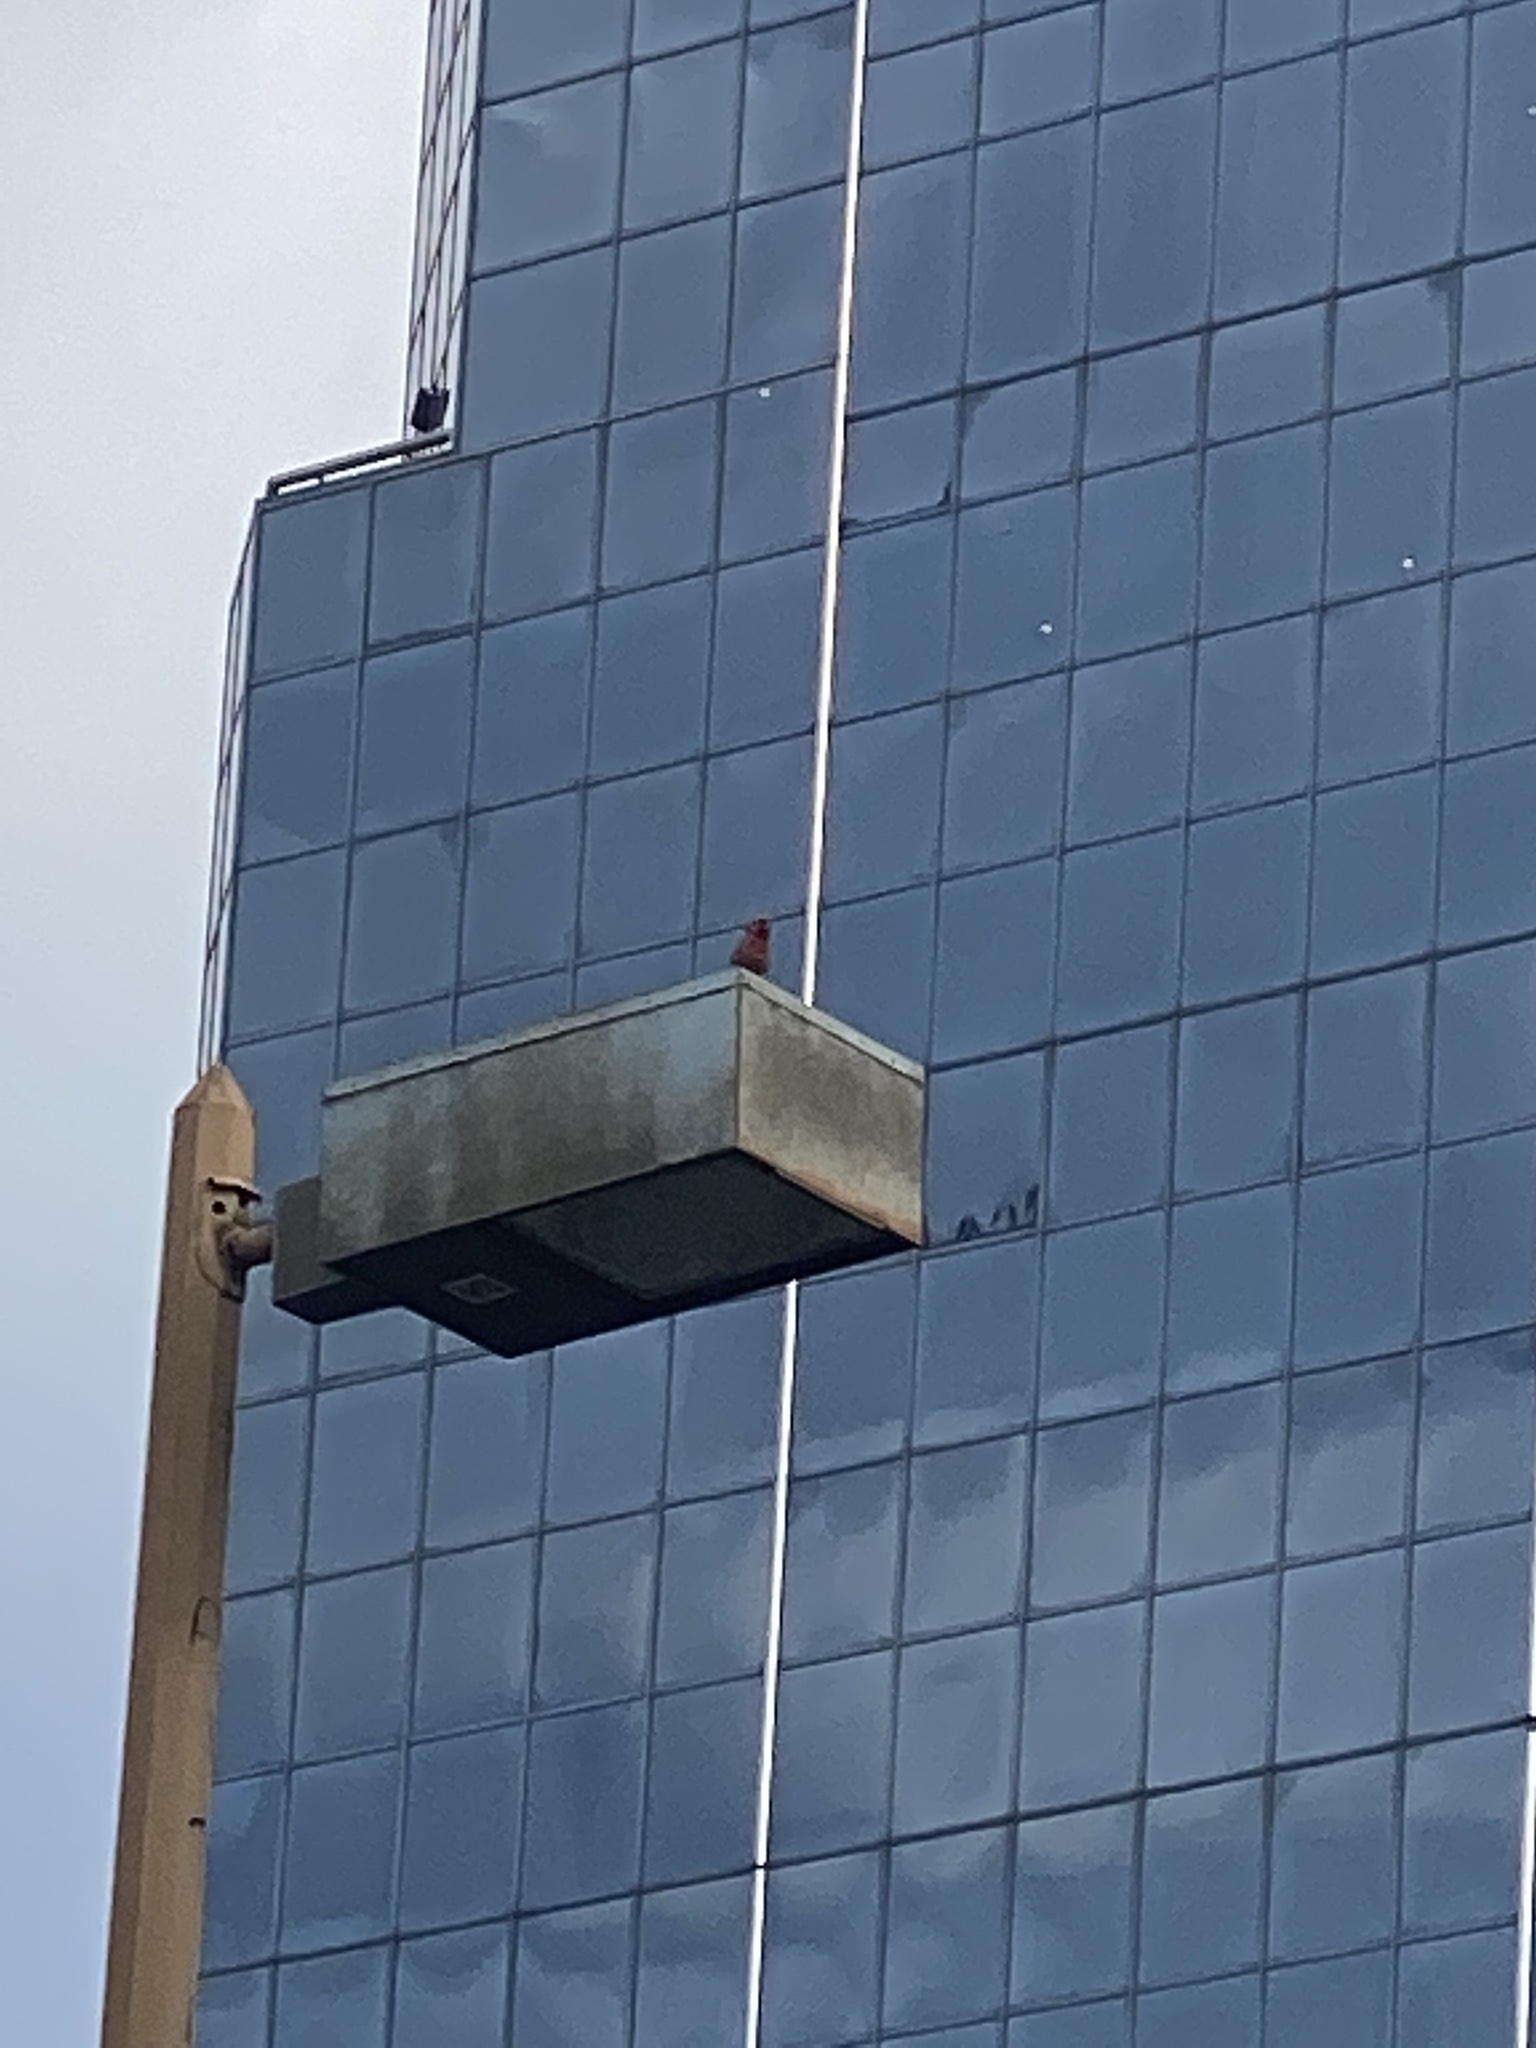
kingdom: Animalia
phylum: Chordata
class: Aves
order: Passeriformes
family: Fringillidae
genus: Haemorhous
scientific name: Haemorhous mexicanus
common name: House finch
